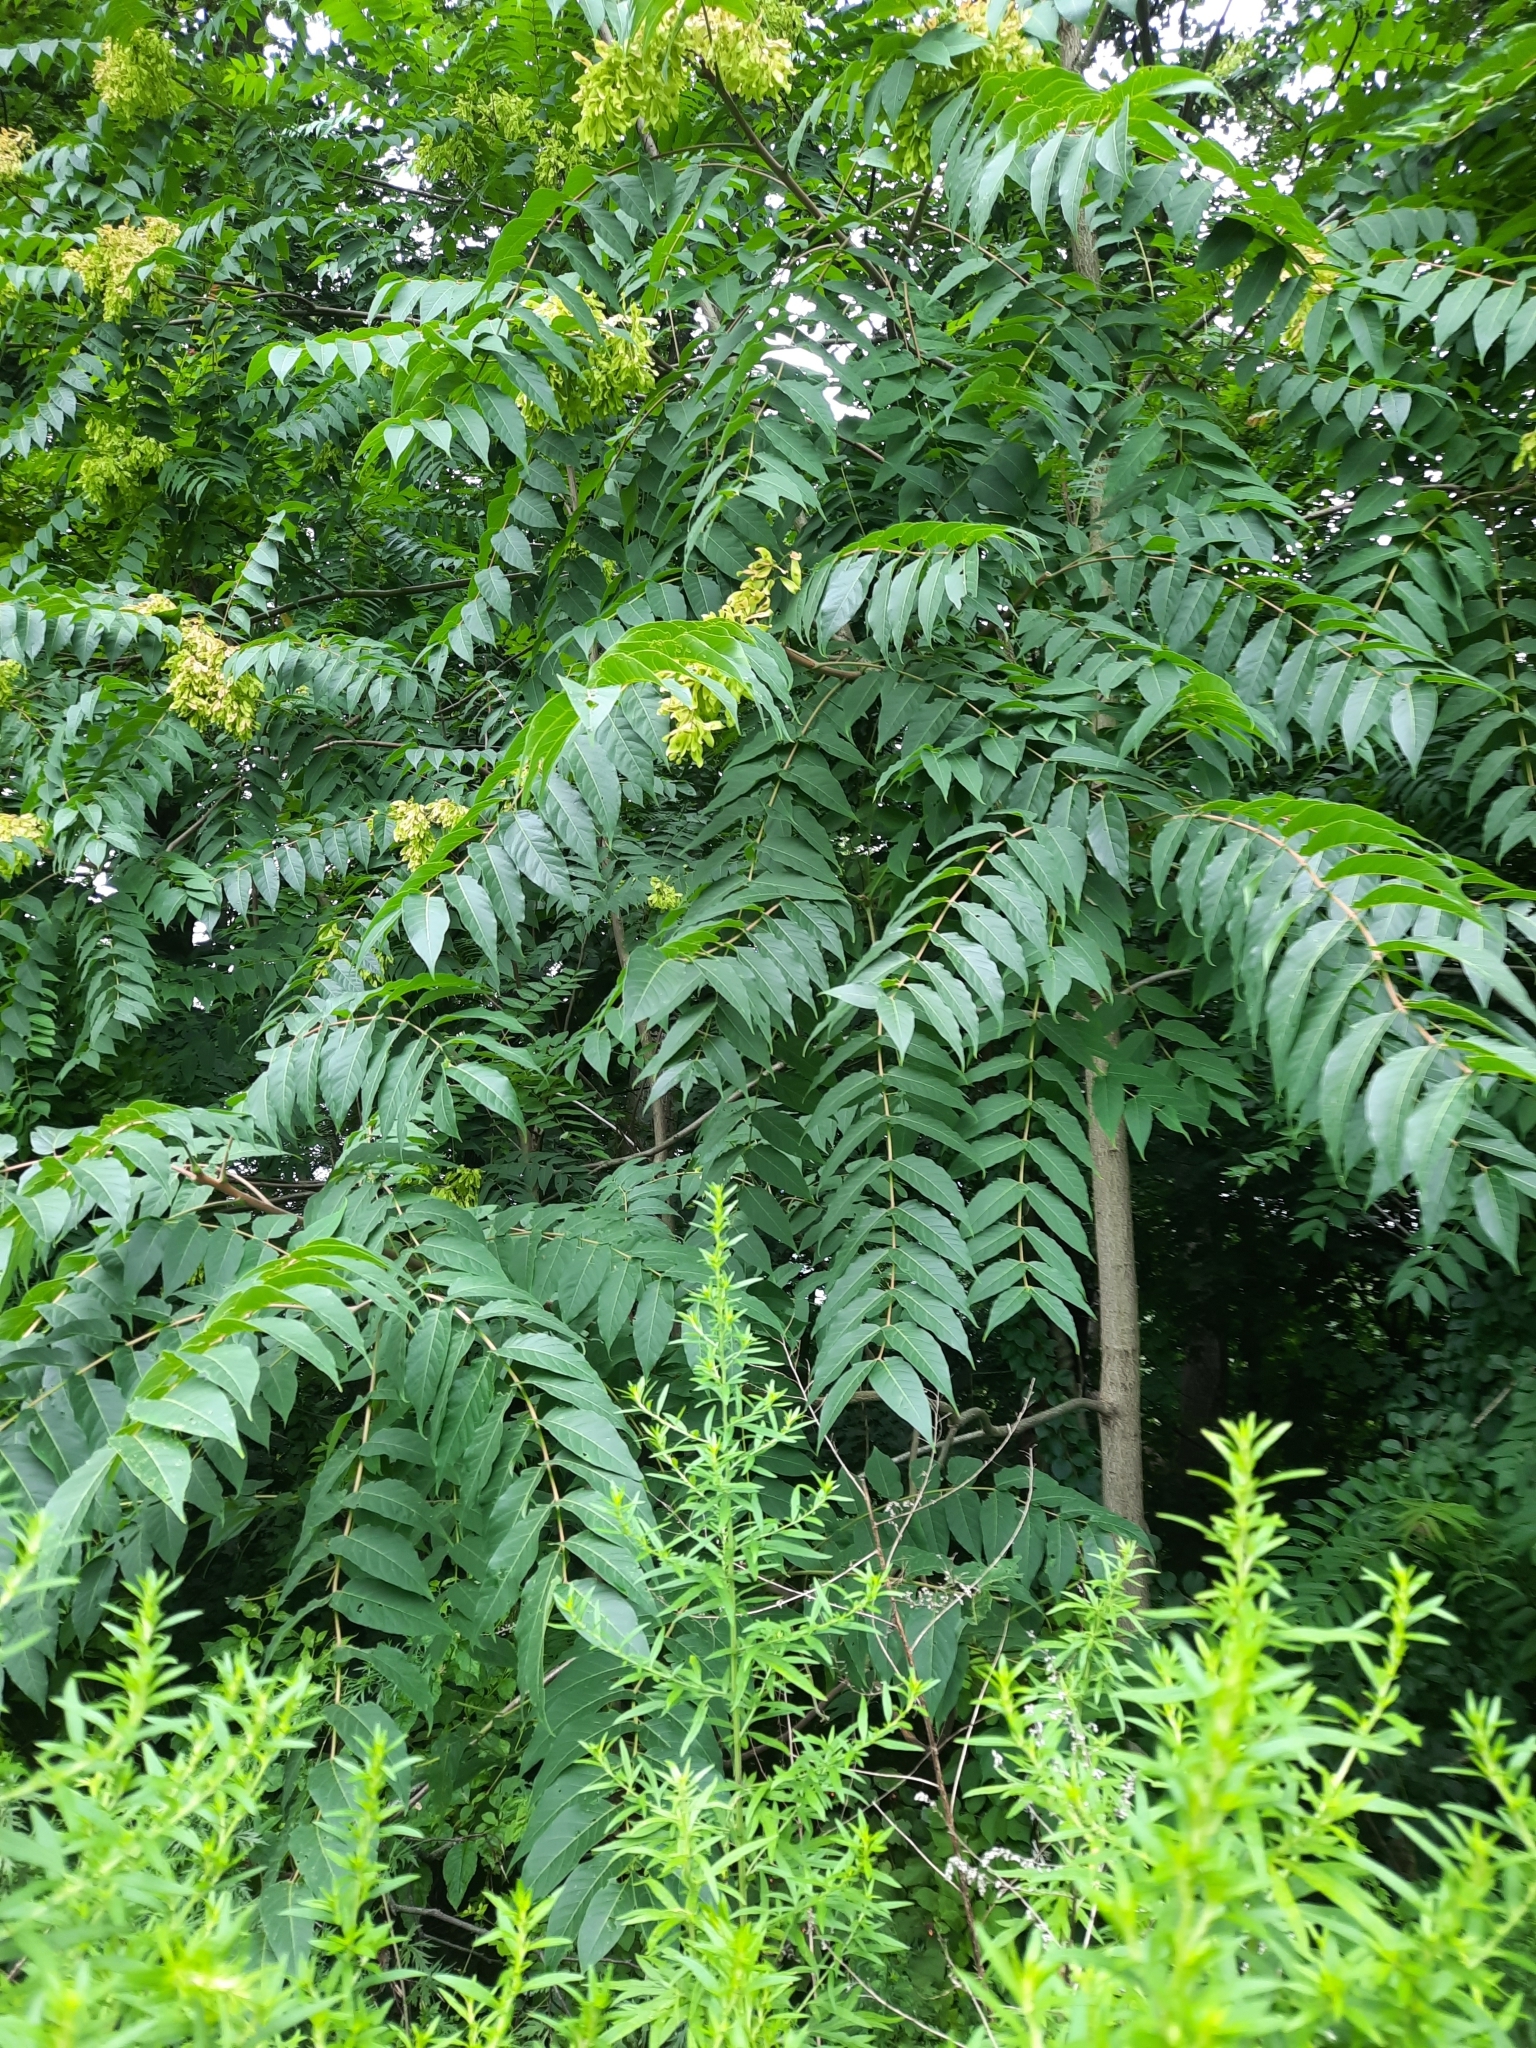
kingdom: Plantae
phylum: Tracheophyta
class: Magnoliopsida
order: Sapindales
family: Simaroubaceae
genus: Ailanthus
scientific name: Ailanthus altissima
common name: Tree-of-heaven
